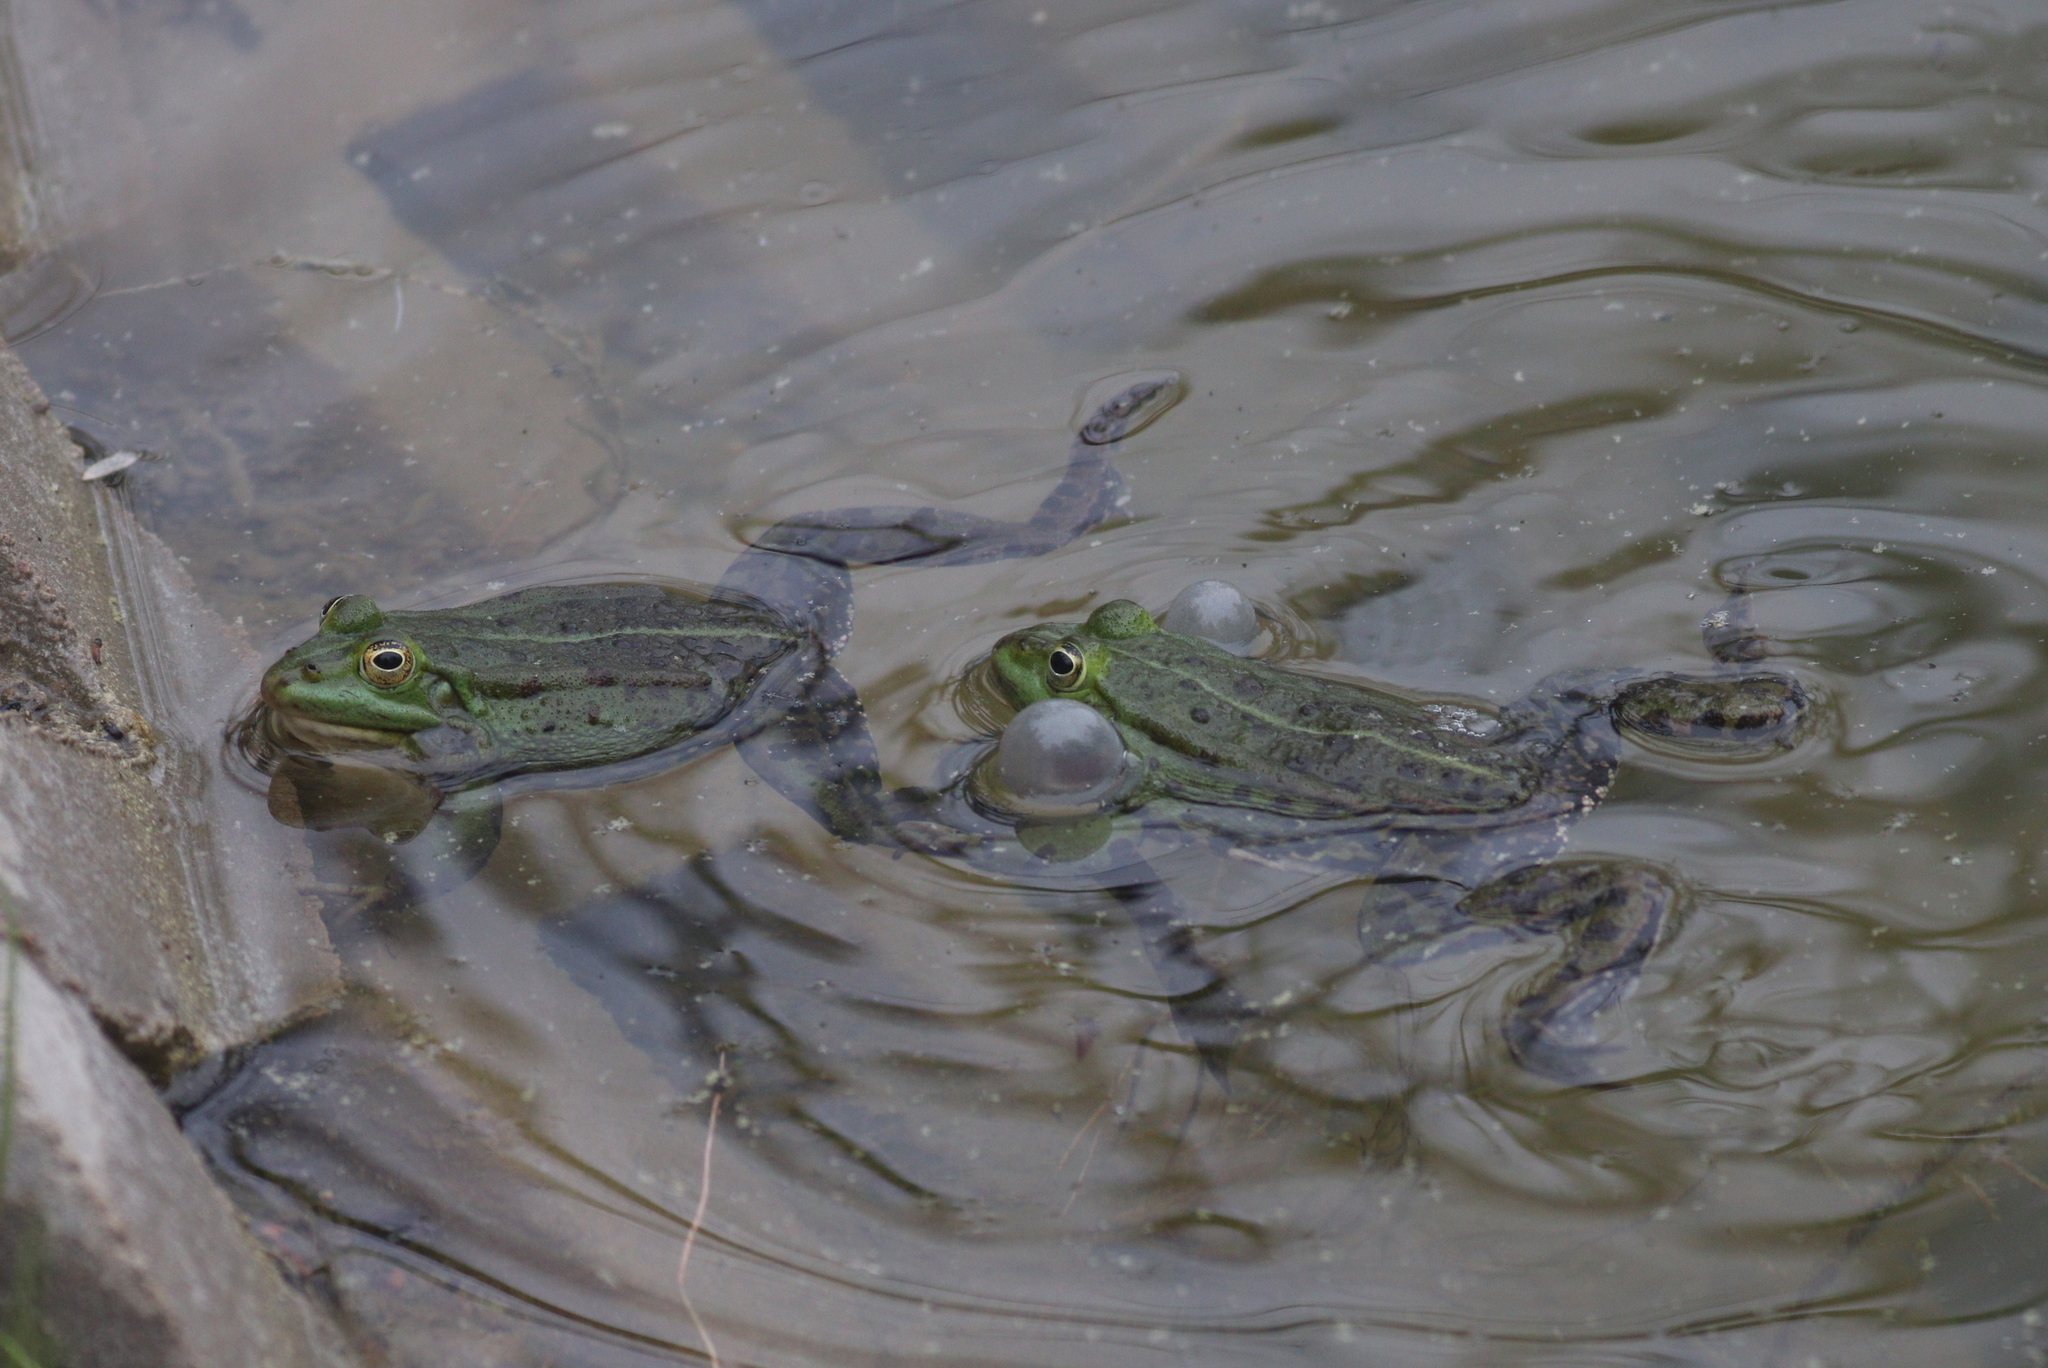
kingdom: Animalia
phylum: Chordata
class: Amphibia
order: Anura
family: Ranidae
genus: Pelophylax
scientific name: Pelophylax
